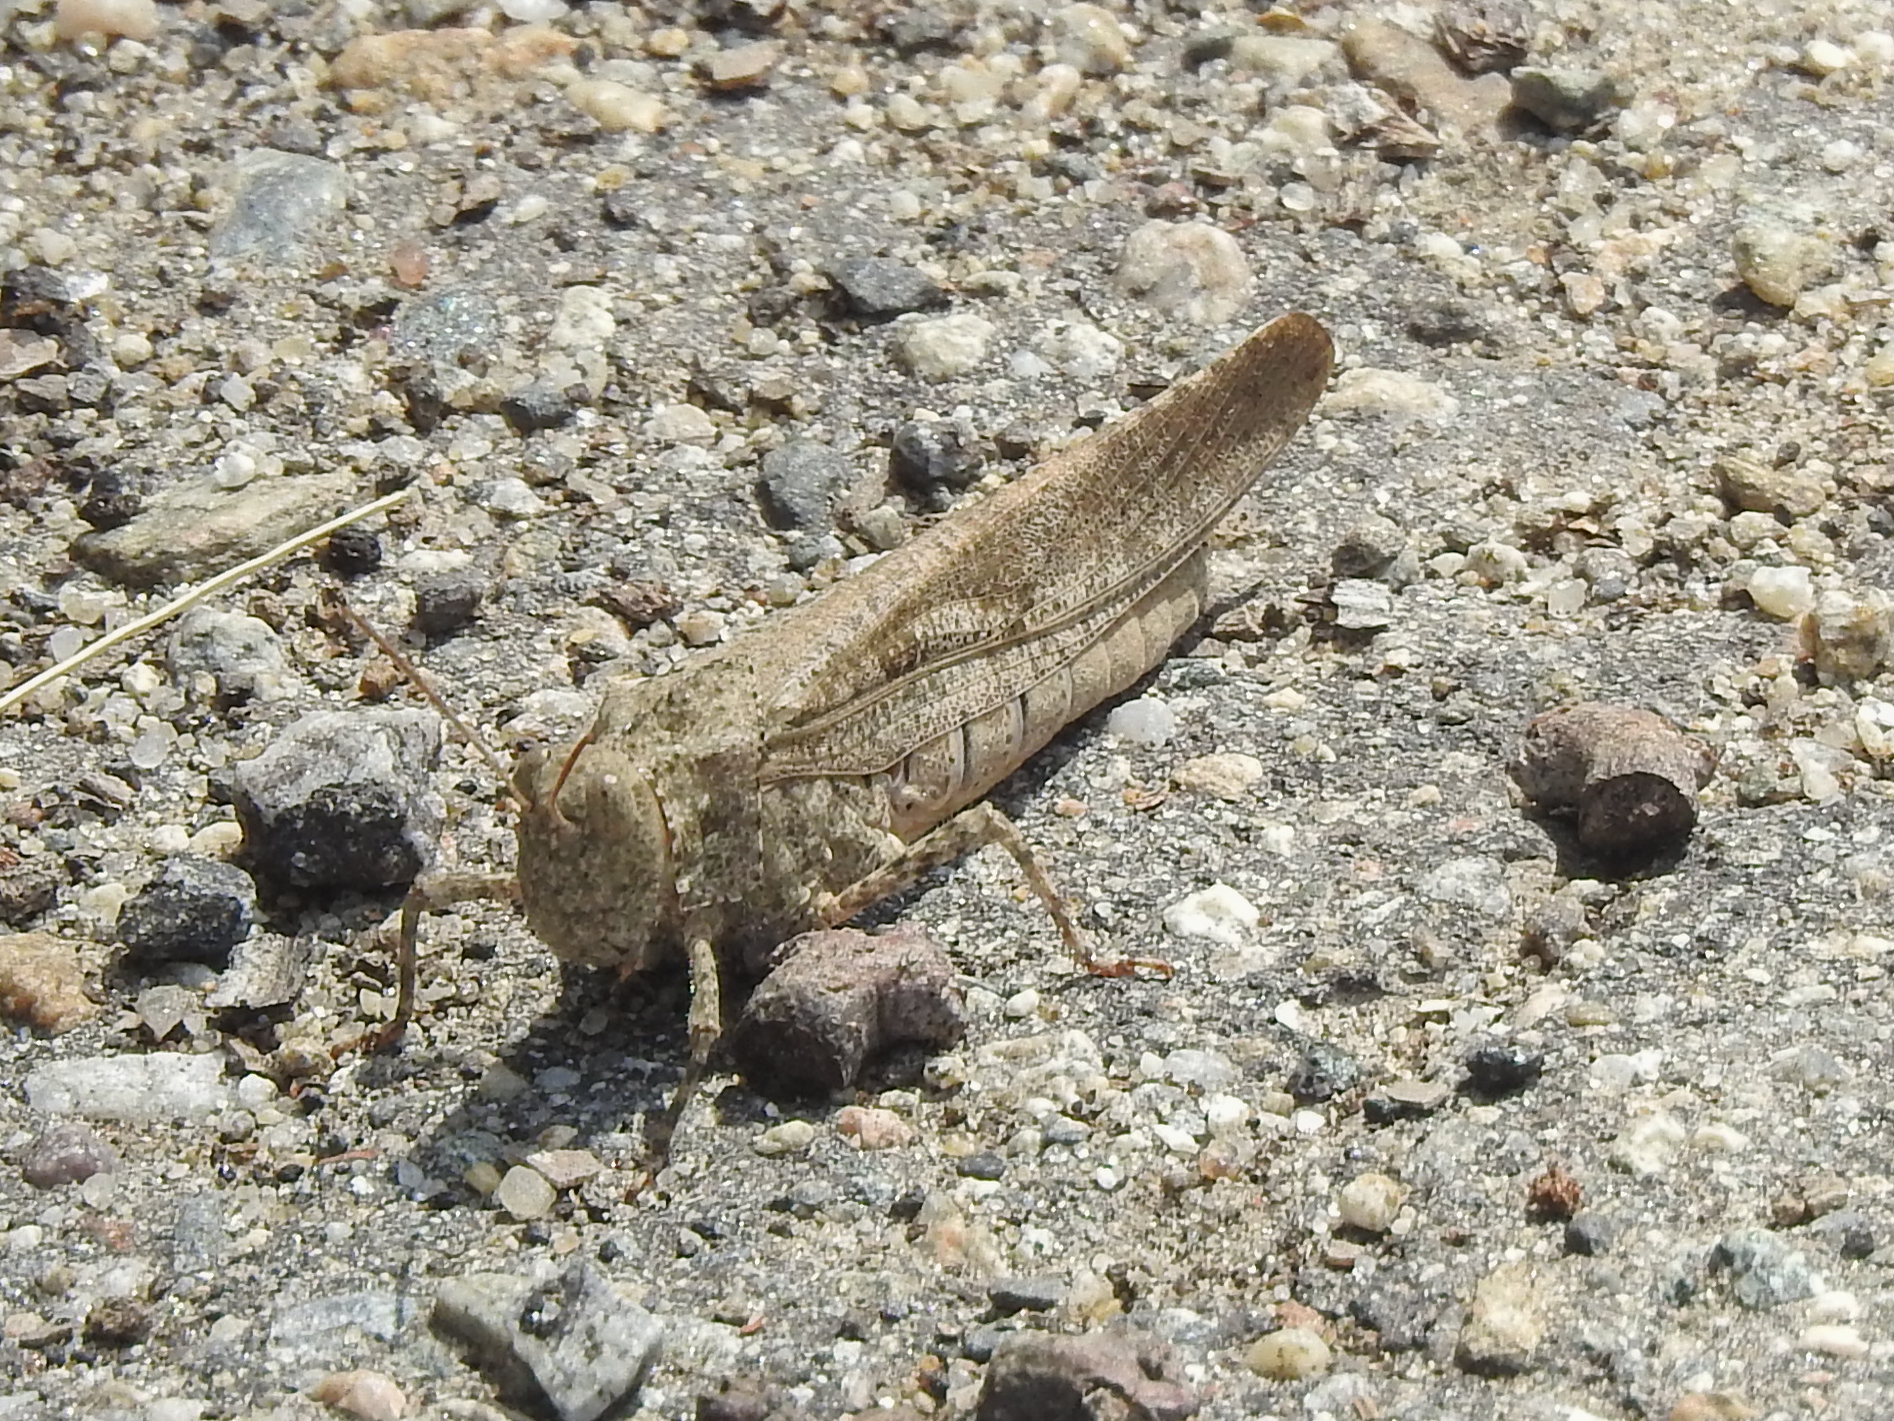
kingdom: Animalia
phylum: Arthropoda
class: Insecta
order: Orthoptera
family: Acrididae
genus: Dissosteira
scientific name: Dissosteira carolina
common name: Carolina grasshopper
